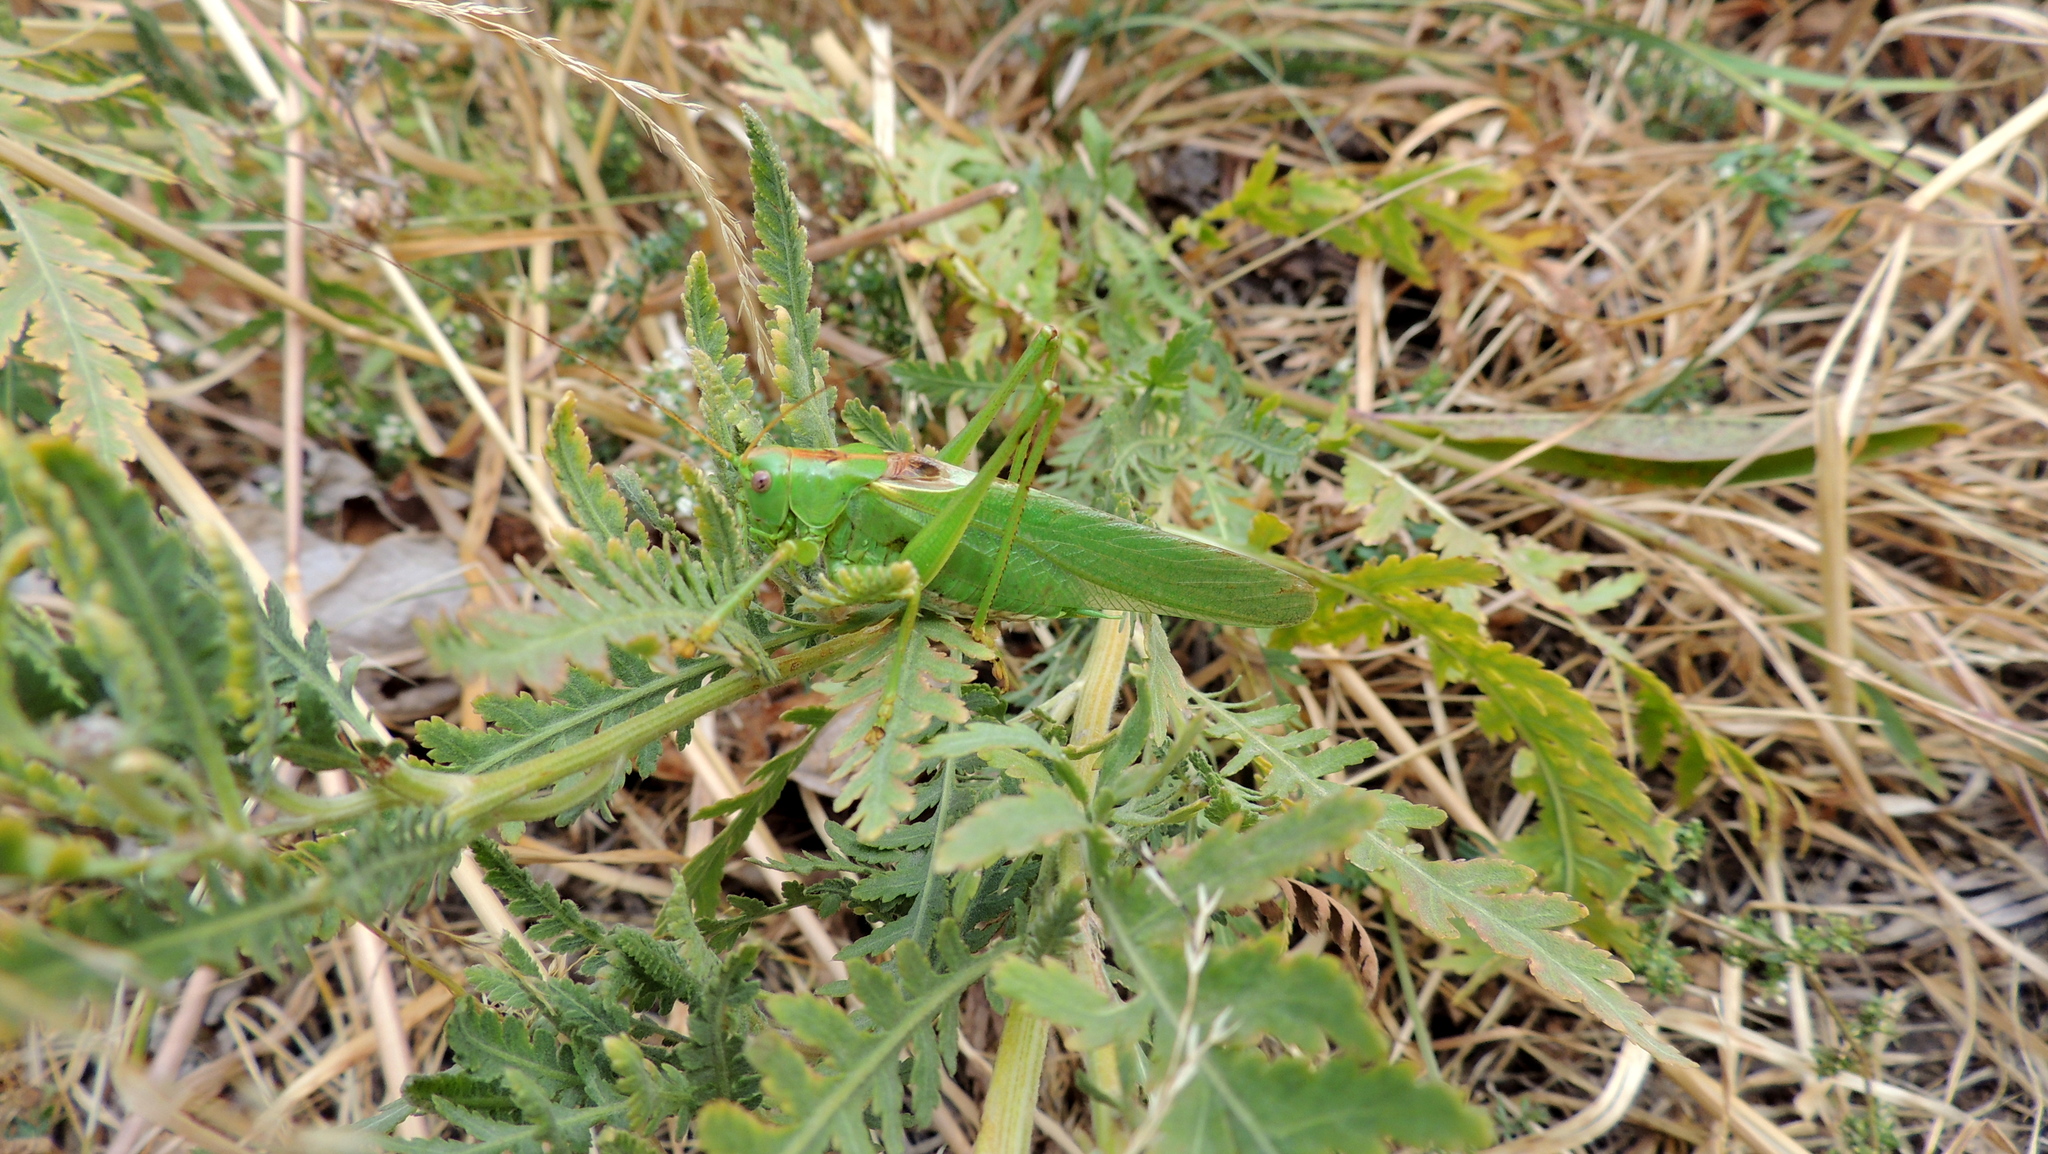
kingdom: Animalia
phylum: Arthropoda
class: Insecta
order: Orthoptera
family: Tettigoniidae
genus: Tettigonia
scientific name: Tettigonia viridissima
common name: Great green bush-cricket
